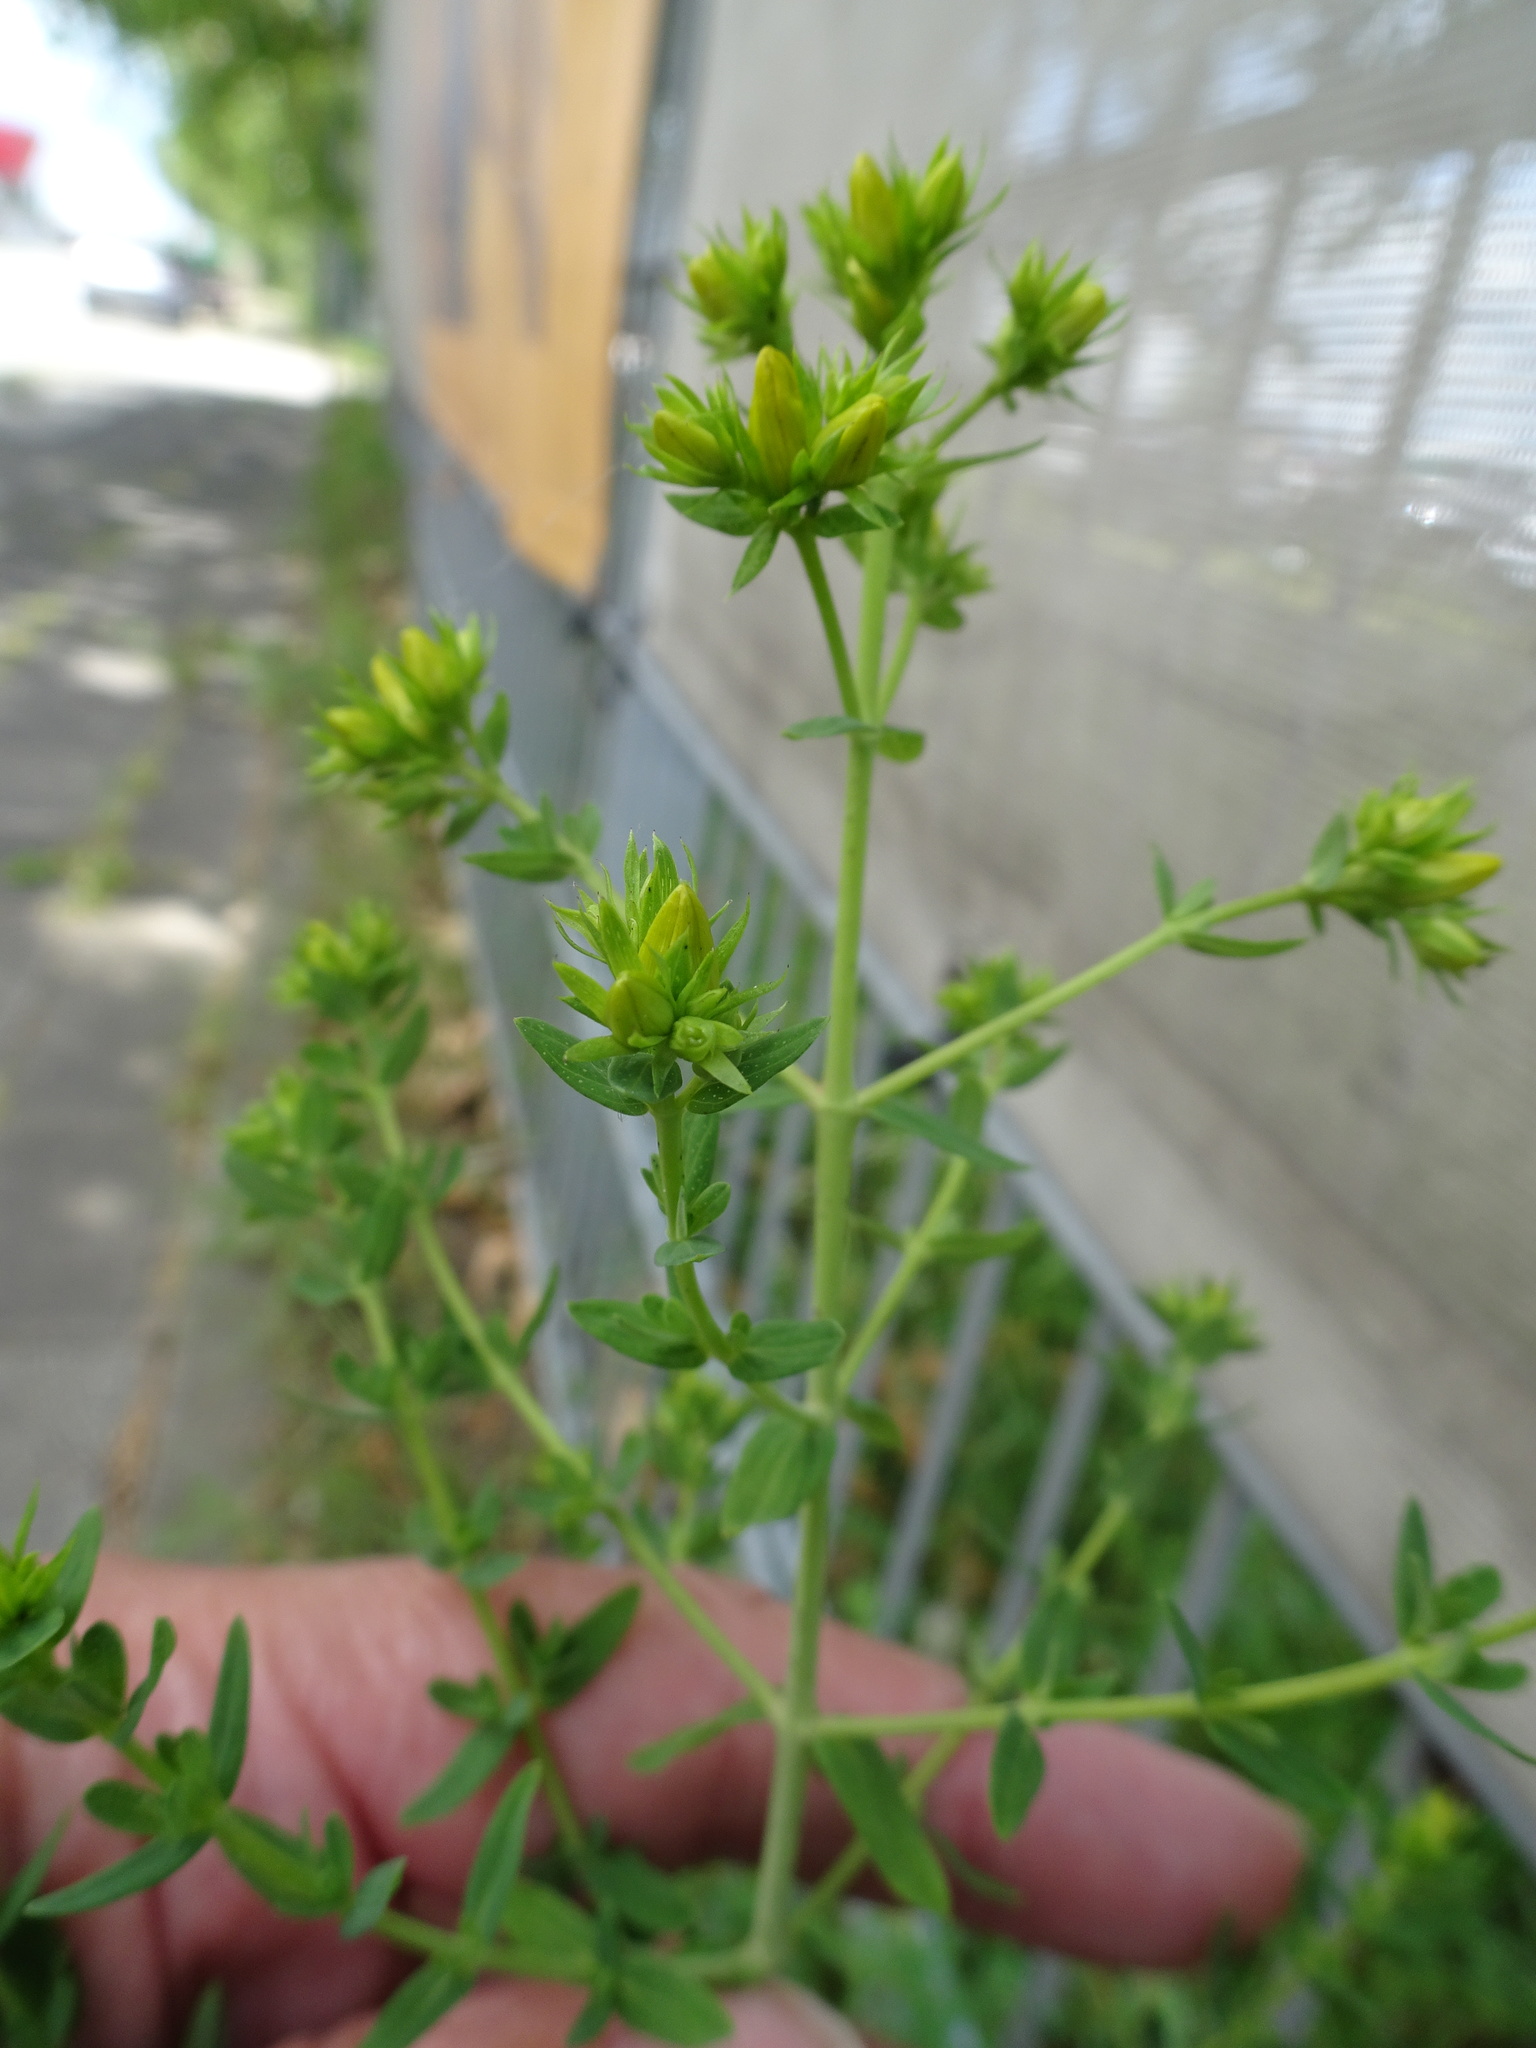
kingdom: Plantae
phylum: Tracheophyta
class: Magnoliopsida
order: Malpighiales
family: Hypericaceae
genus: Hypericum
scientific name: Hypericum desetangsii
